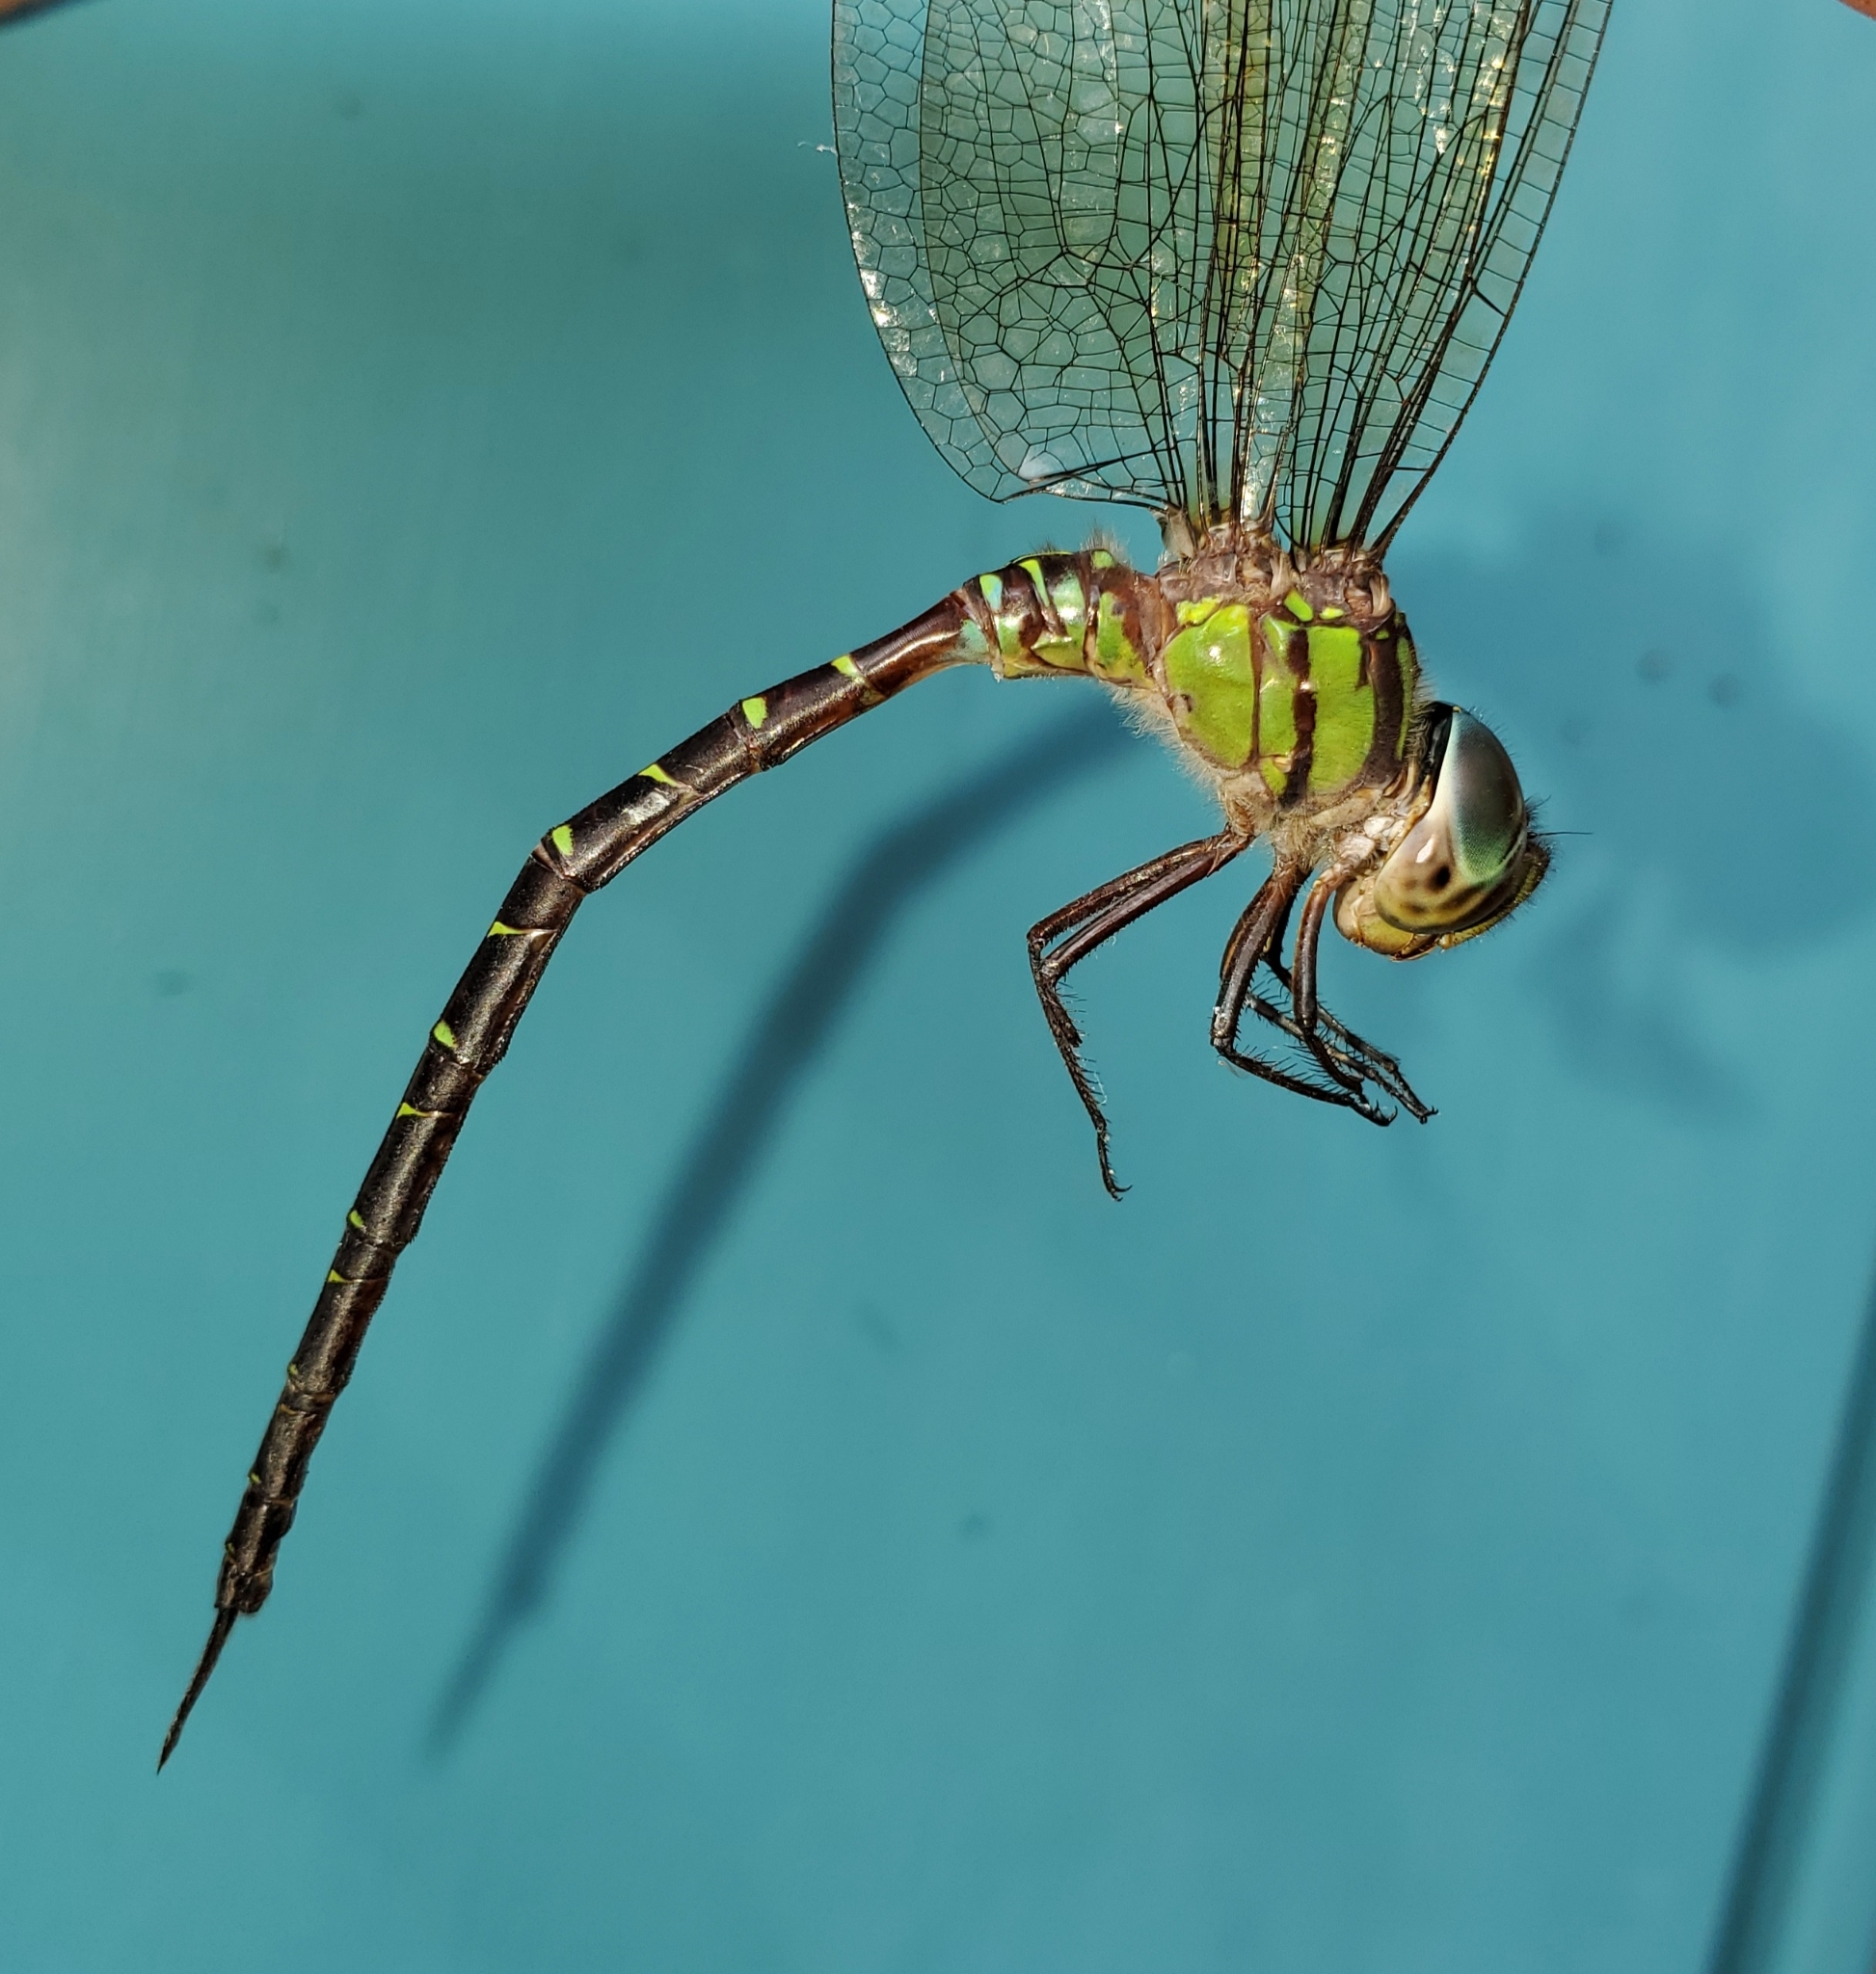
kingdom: Animalia
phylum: Arthropoda
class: Insecta
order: Odonata
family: Aeshnidae
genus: Triacanthagyna
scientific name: Triacanthagyna trifida
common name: Phantom darner
